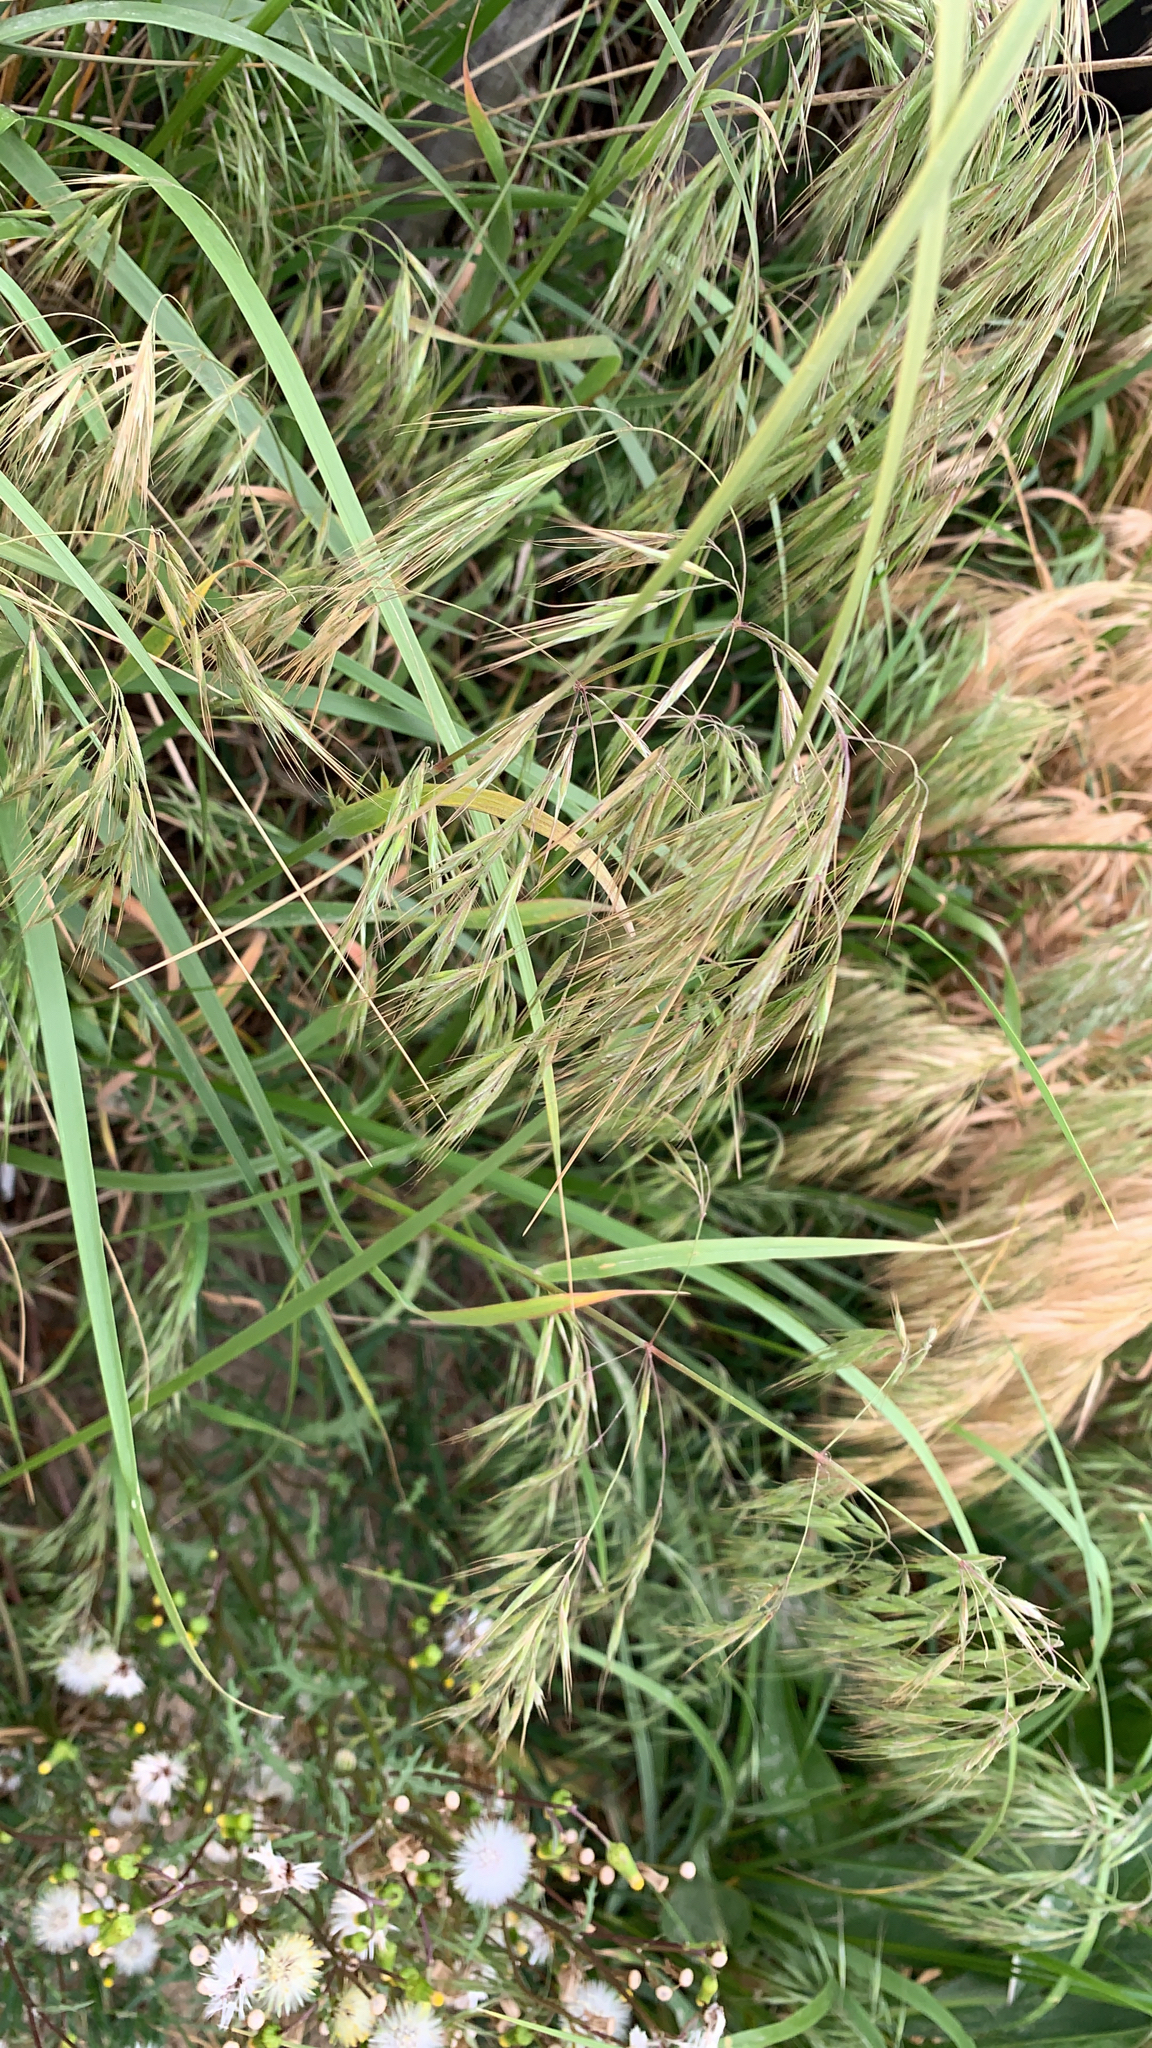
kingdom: Plantae
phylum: Tracheophyta
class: Liliopsida
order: Poales
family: Poaceae
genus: Bromus
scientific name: Bromus tectorum
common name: Cheatgrass
